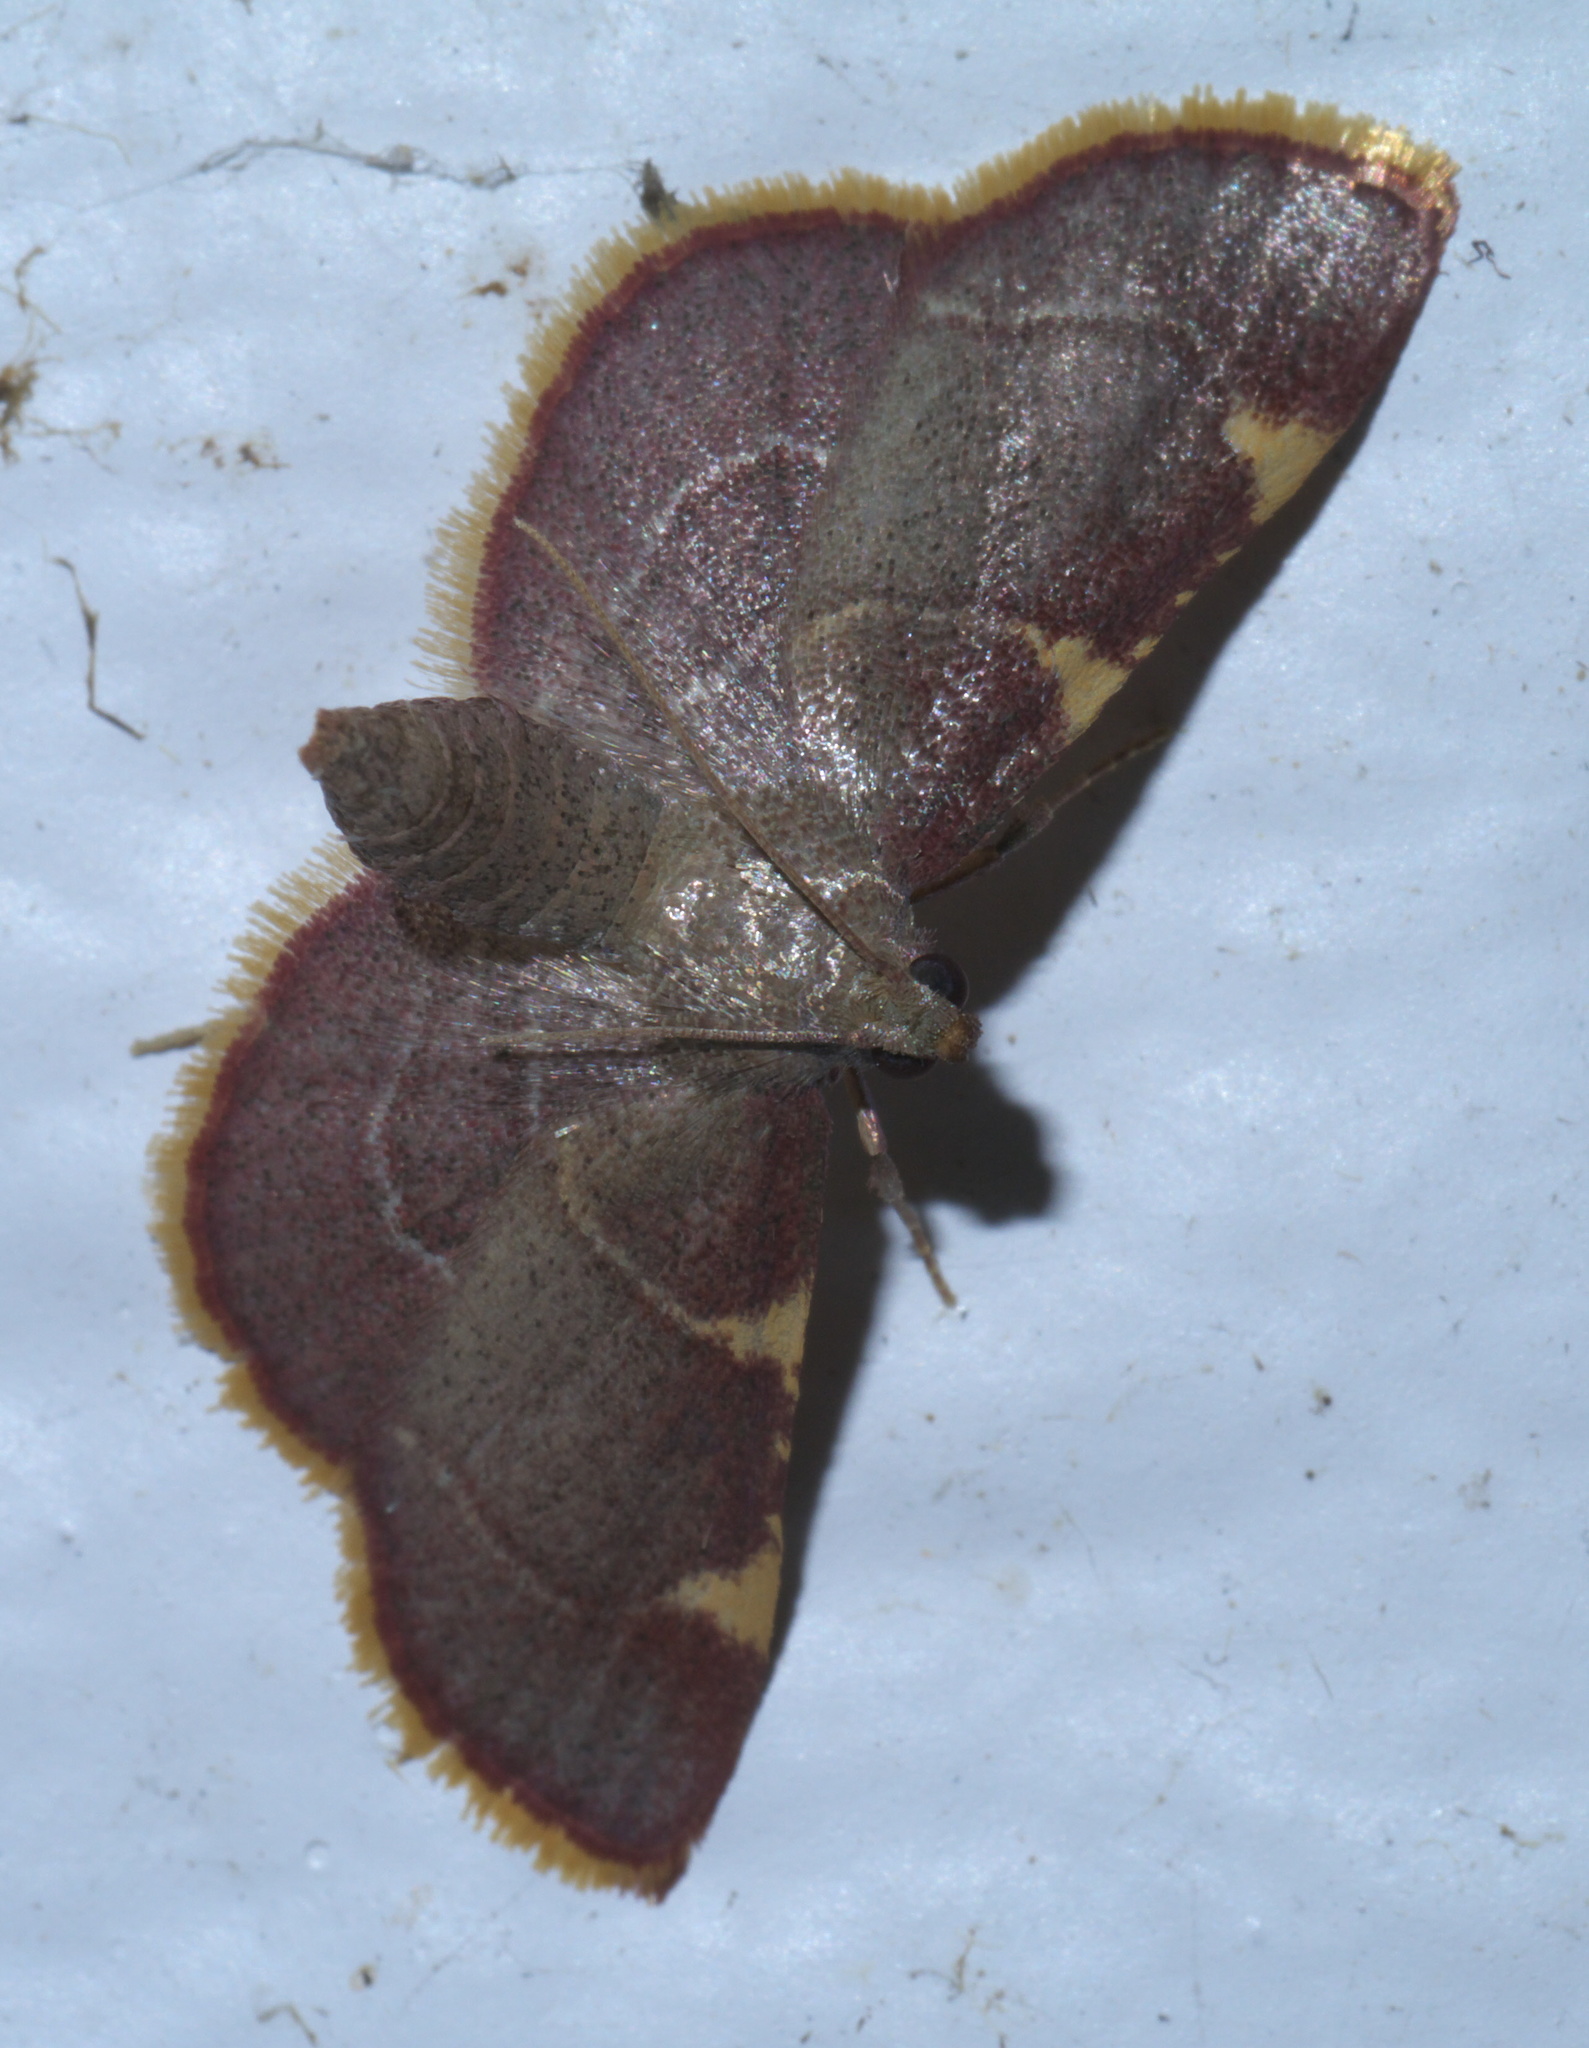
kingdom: Animalia
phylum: Arthropoda
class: Insecta
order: Lepidoptera
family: Pyralidae
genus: Hypsopygia
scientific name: Hypsopygia olinalis
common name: Yellow-fringed dolichomia moth
